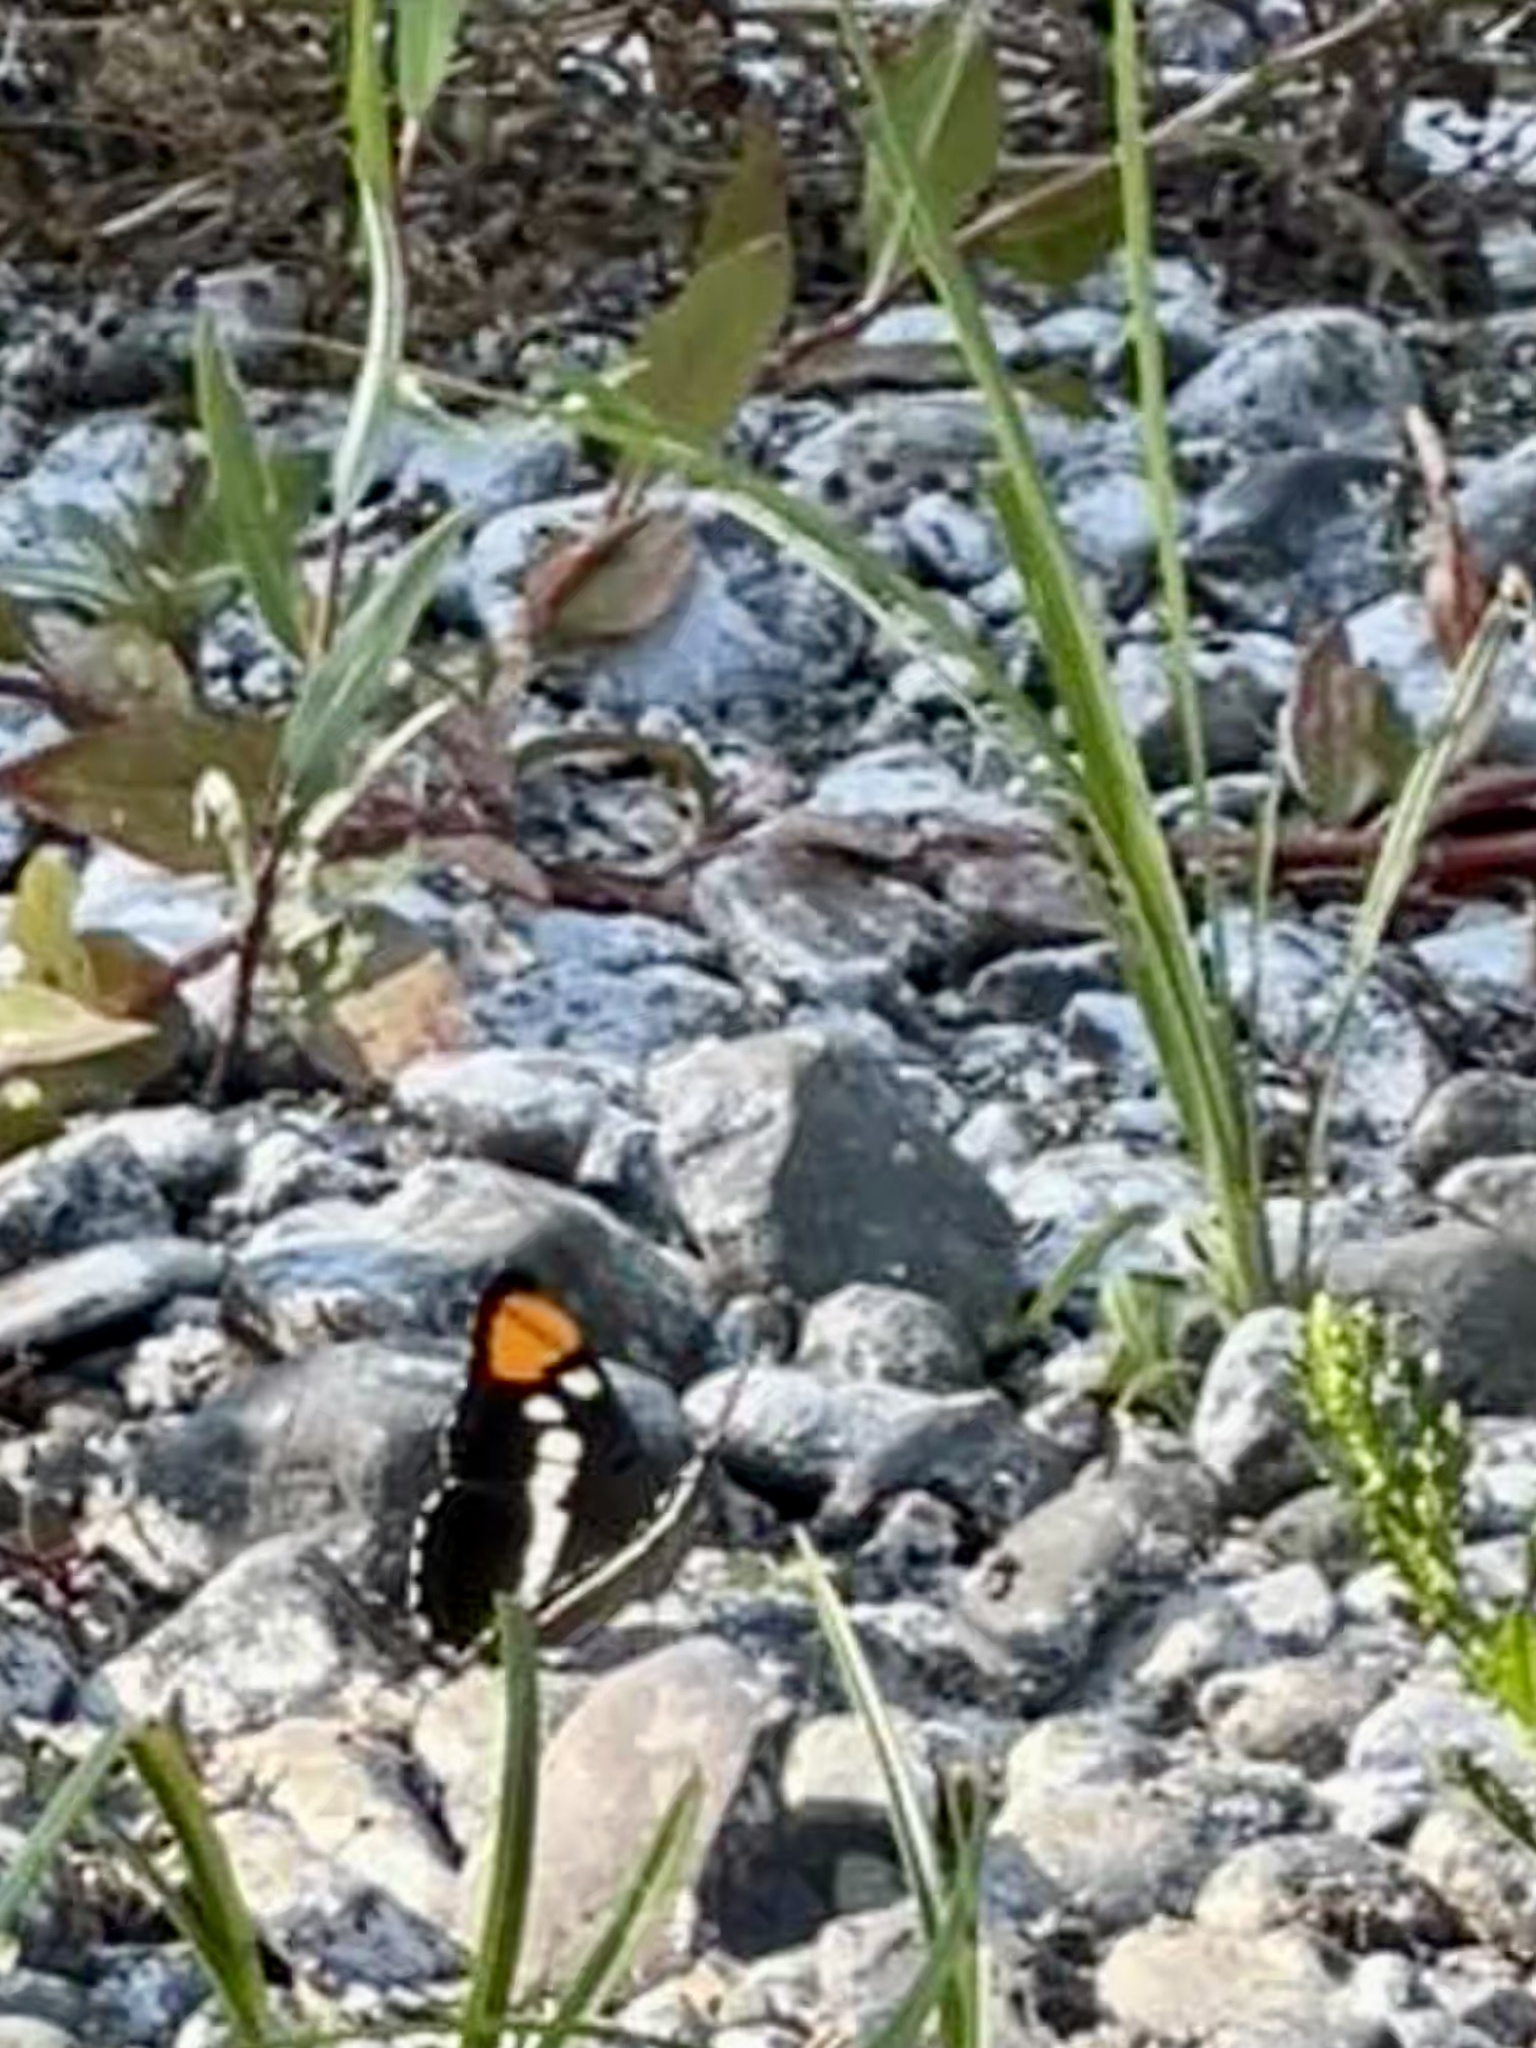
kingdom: Animalia
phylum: Arthropoda
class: Insecta
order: Lepidoptera
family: Nymphalidae
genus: Limenitis
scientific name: Limenitis bredowii
